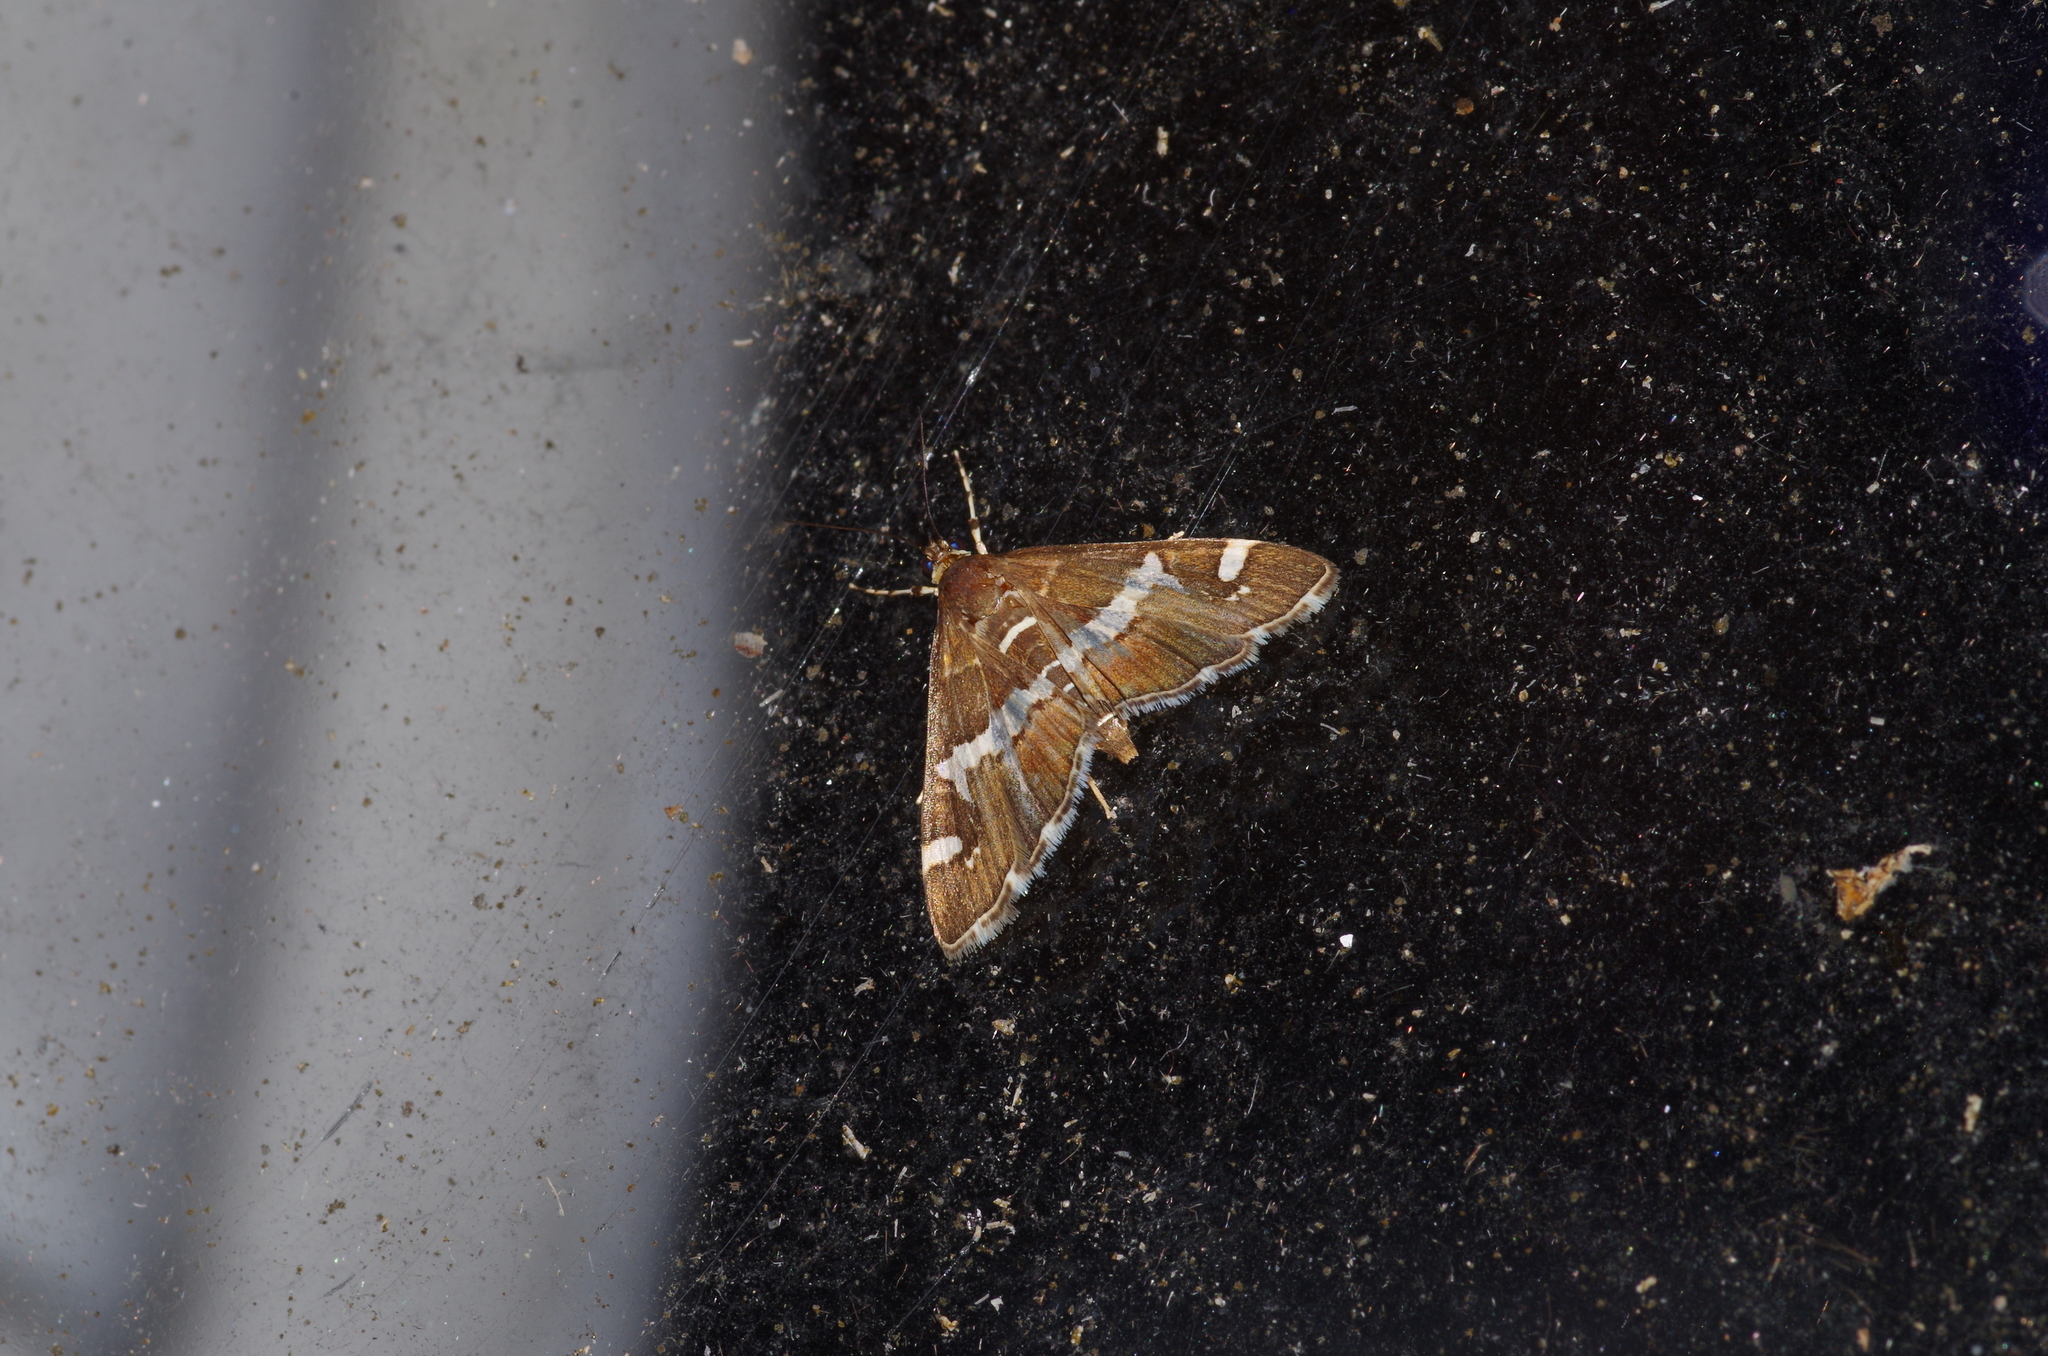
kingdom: Animalia
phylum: Arthropoda
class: Insecta
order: Lepidoptera
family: Crambidae
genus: Spoladea
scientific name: Spoladea recurvalis
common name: Beet webworm moth
